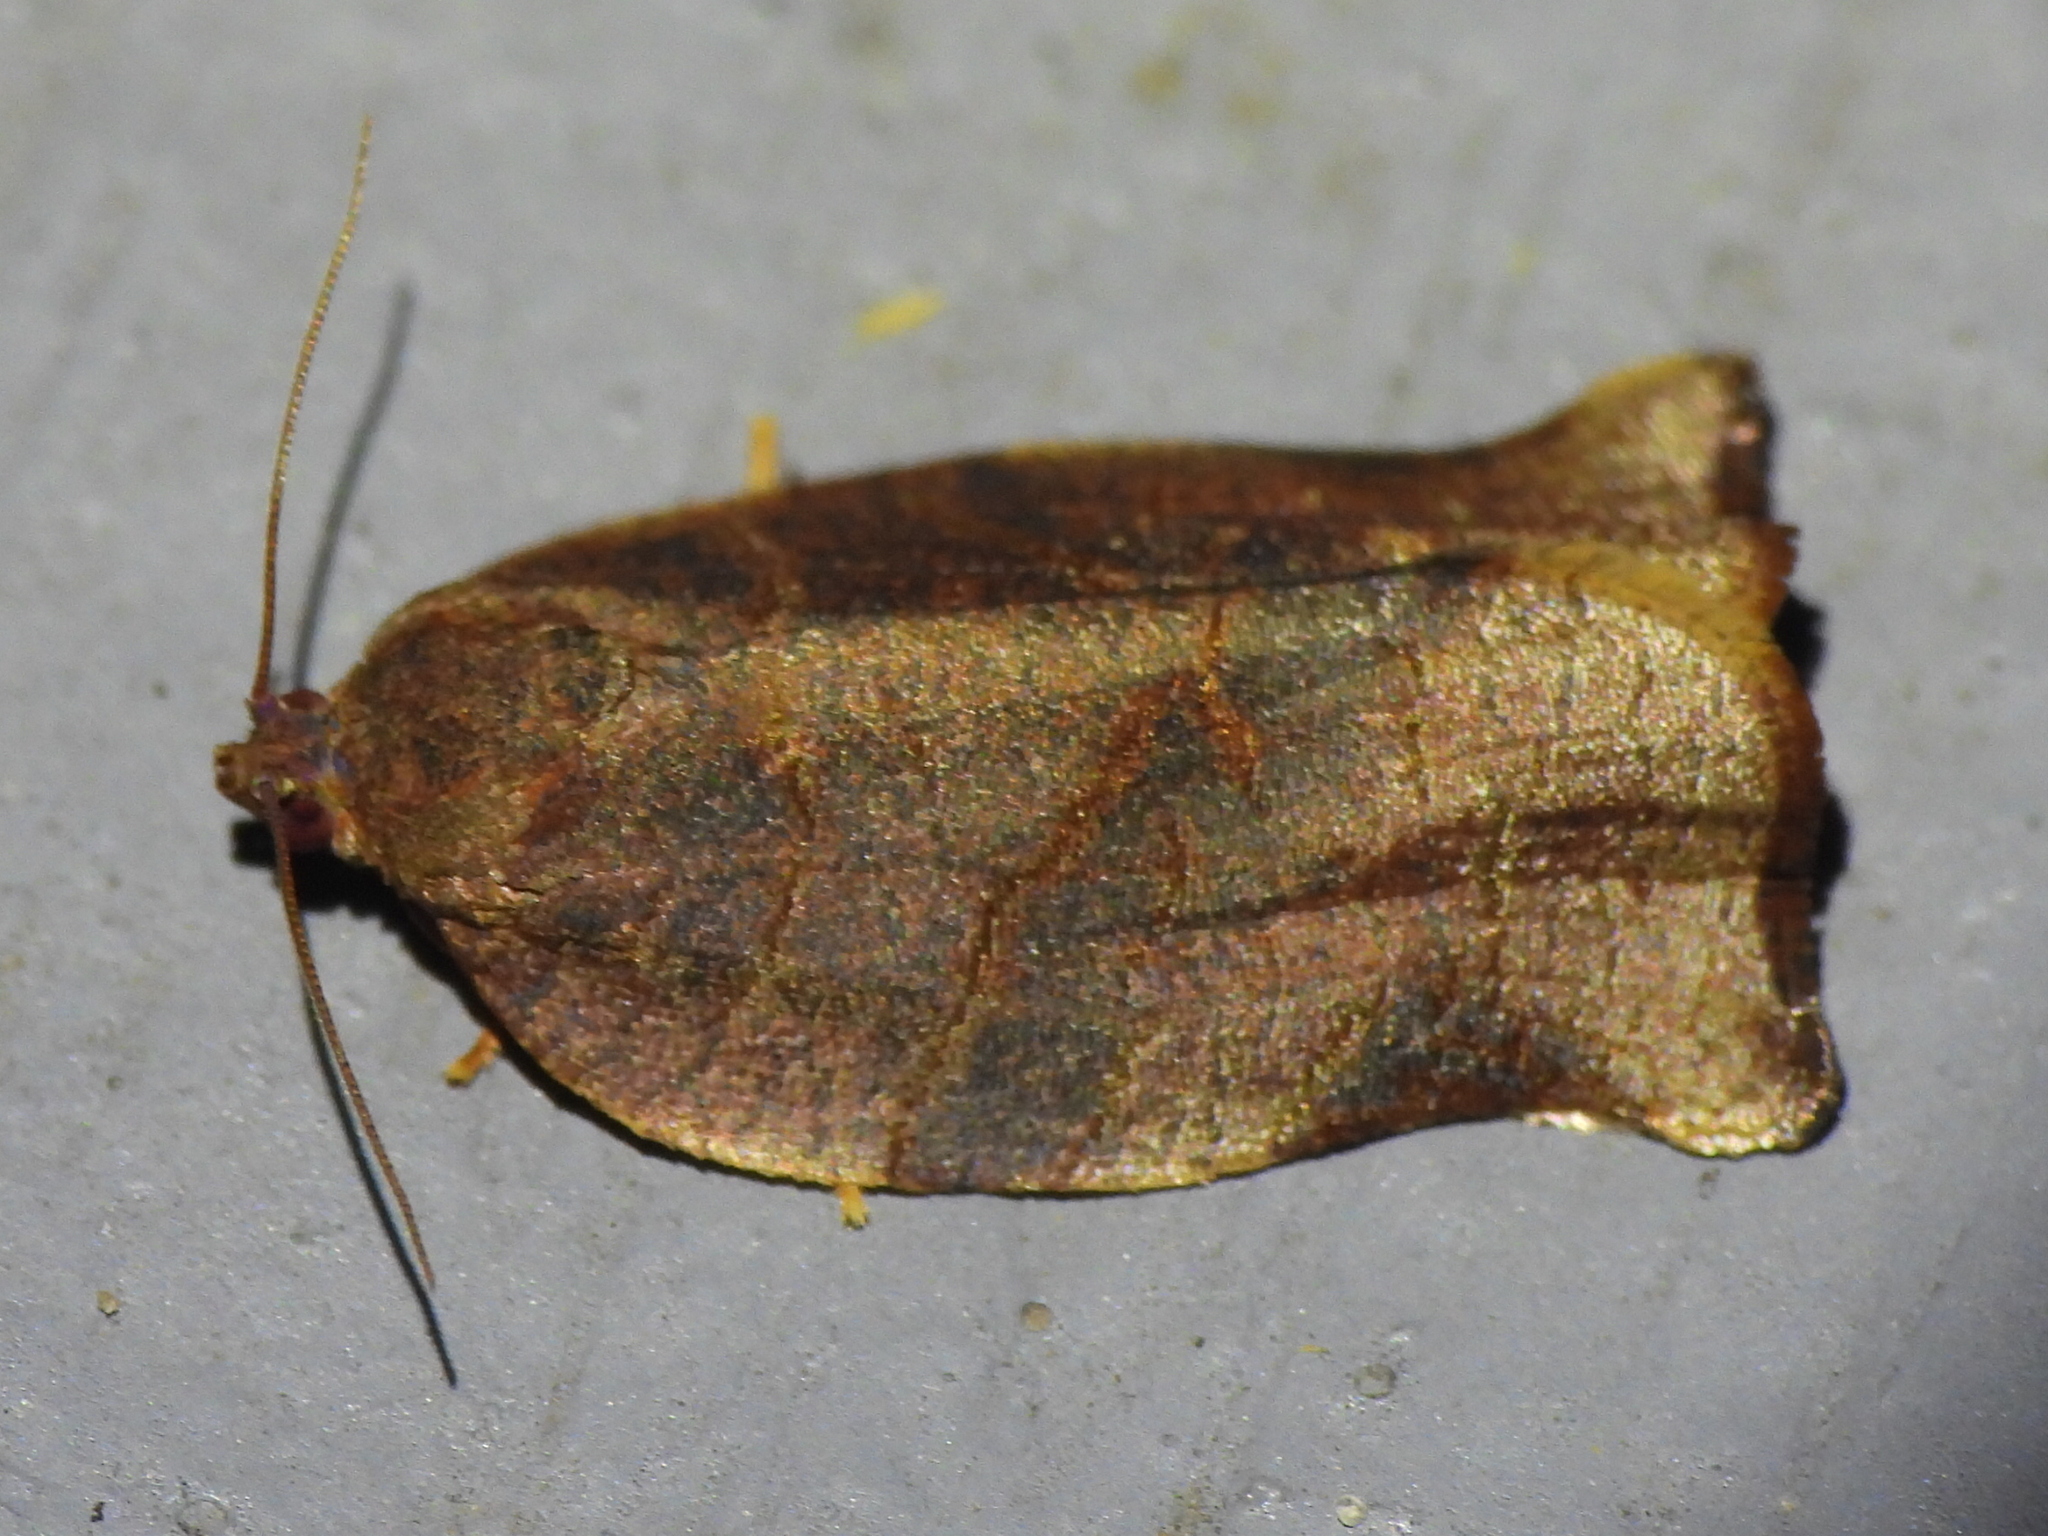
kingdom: Animalia
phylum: Arthropoda
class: Insecta
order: Lepidoptera
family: Tortricidae
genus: Choristoneura
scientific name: Choristoneura rosaceana
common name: Oblique-banded leafroller moth
